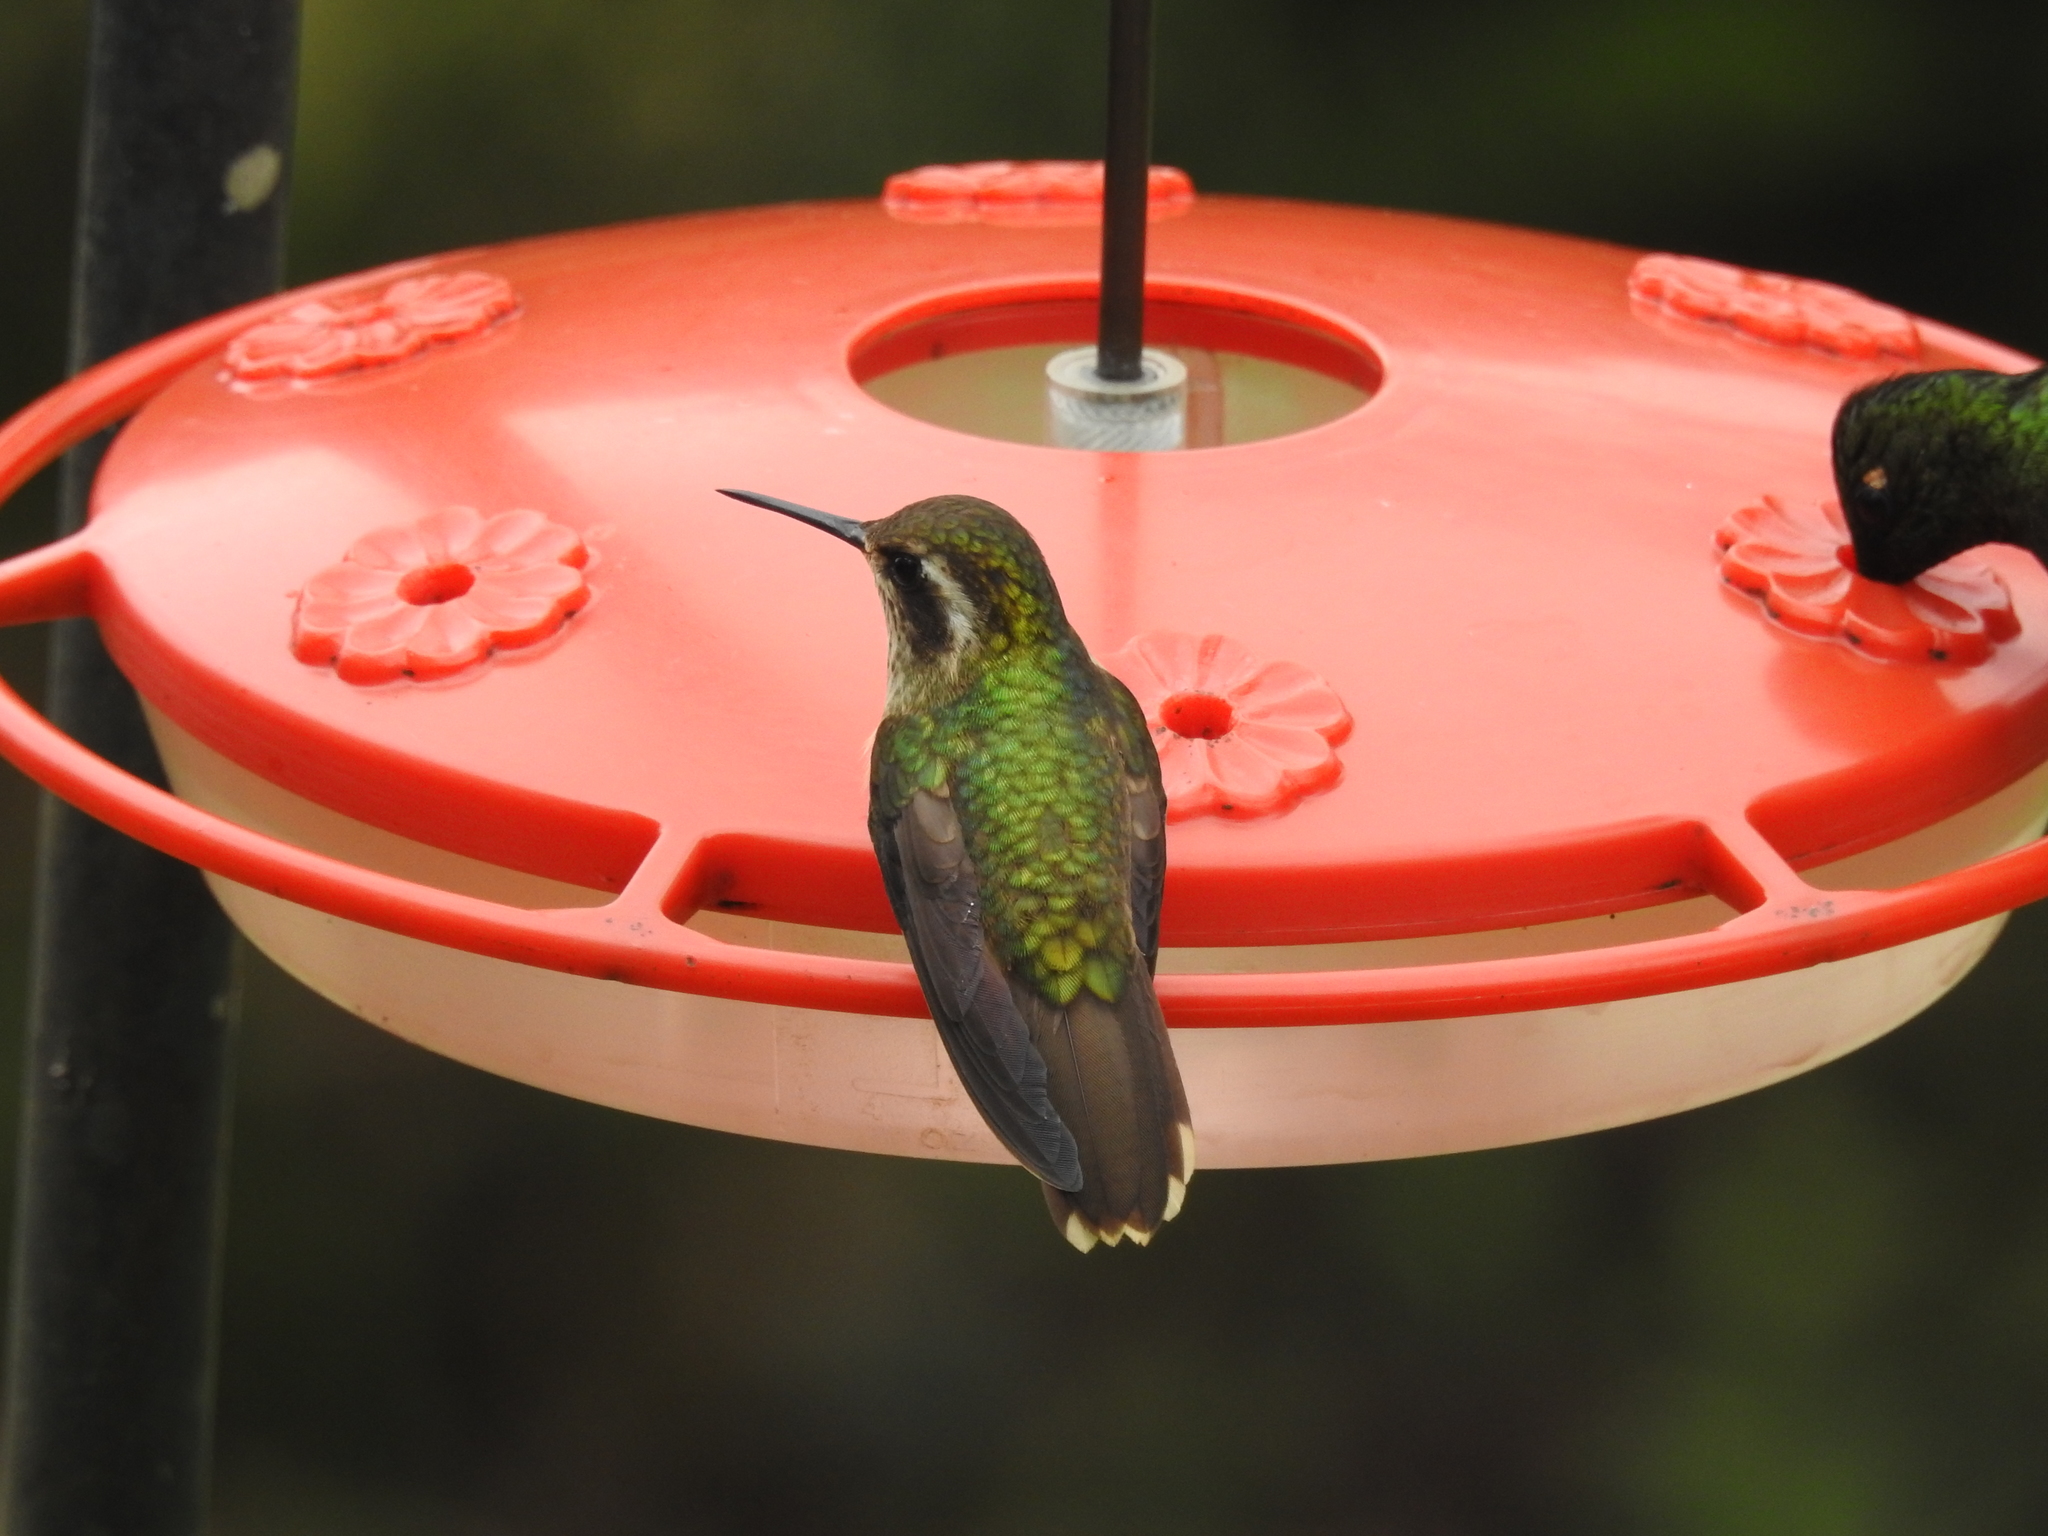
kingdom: Animalia
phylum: Chordata
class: Aves
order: Apodiformes
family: Trochilidae
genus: Adelomyia
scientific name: Adelomyia melanogenys
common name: Speckled hummingbird
